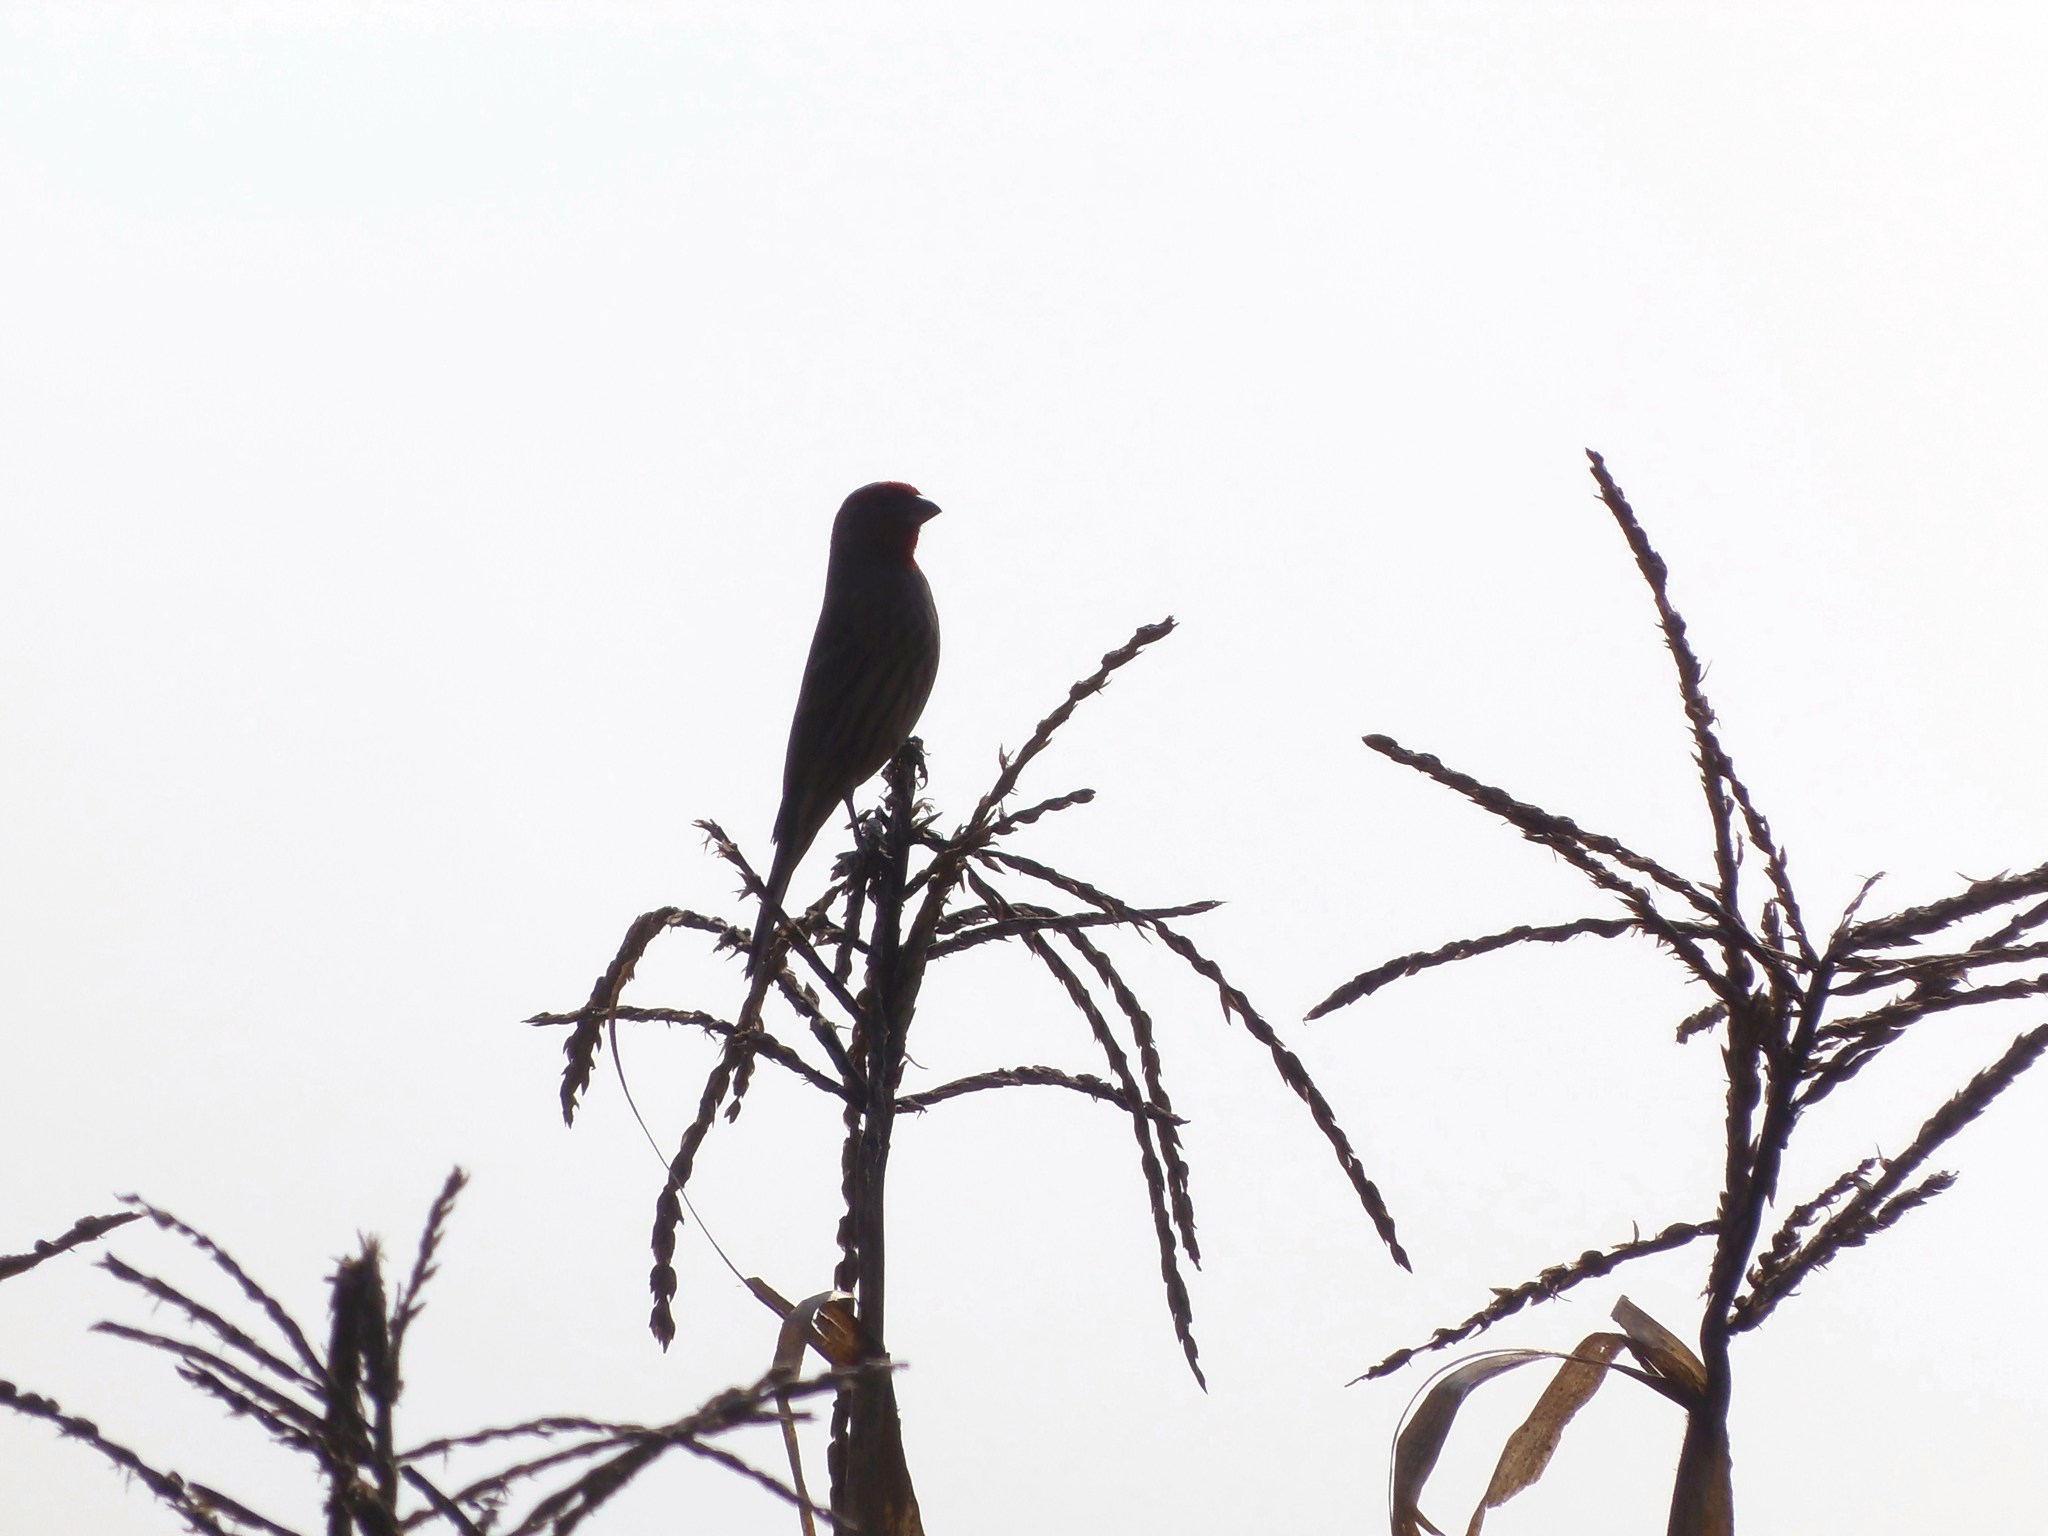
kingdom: Animalia
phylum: Chordata
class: Aves
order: Passeriformes
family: Fringillidae
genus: Haemorhous
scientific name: Haemorhous mexicanus
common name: House finch
